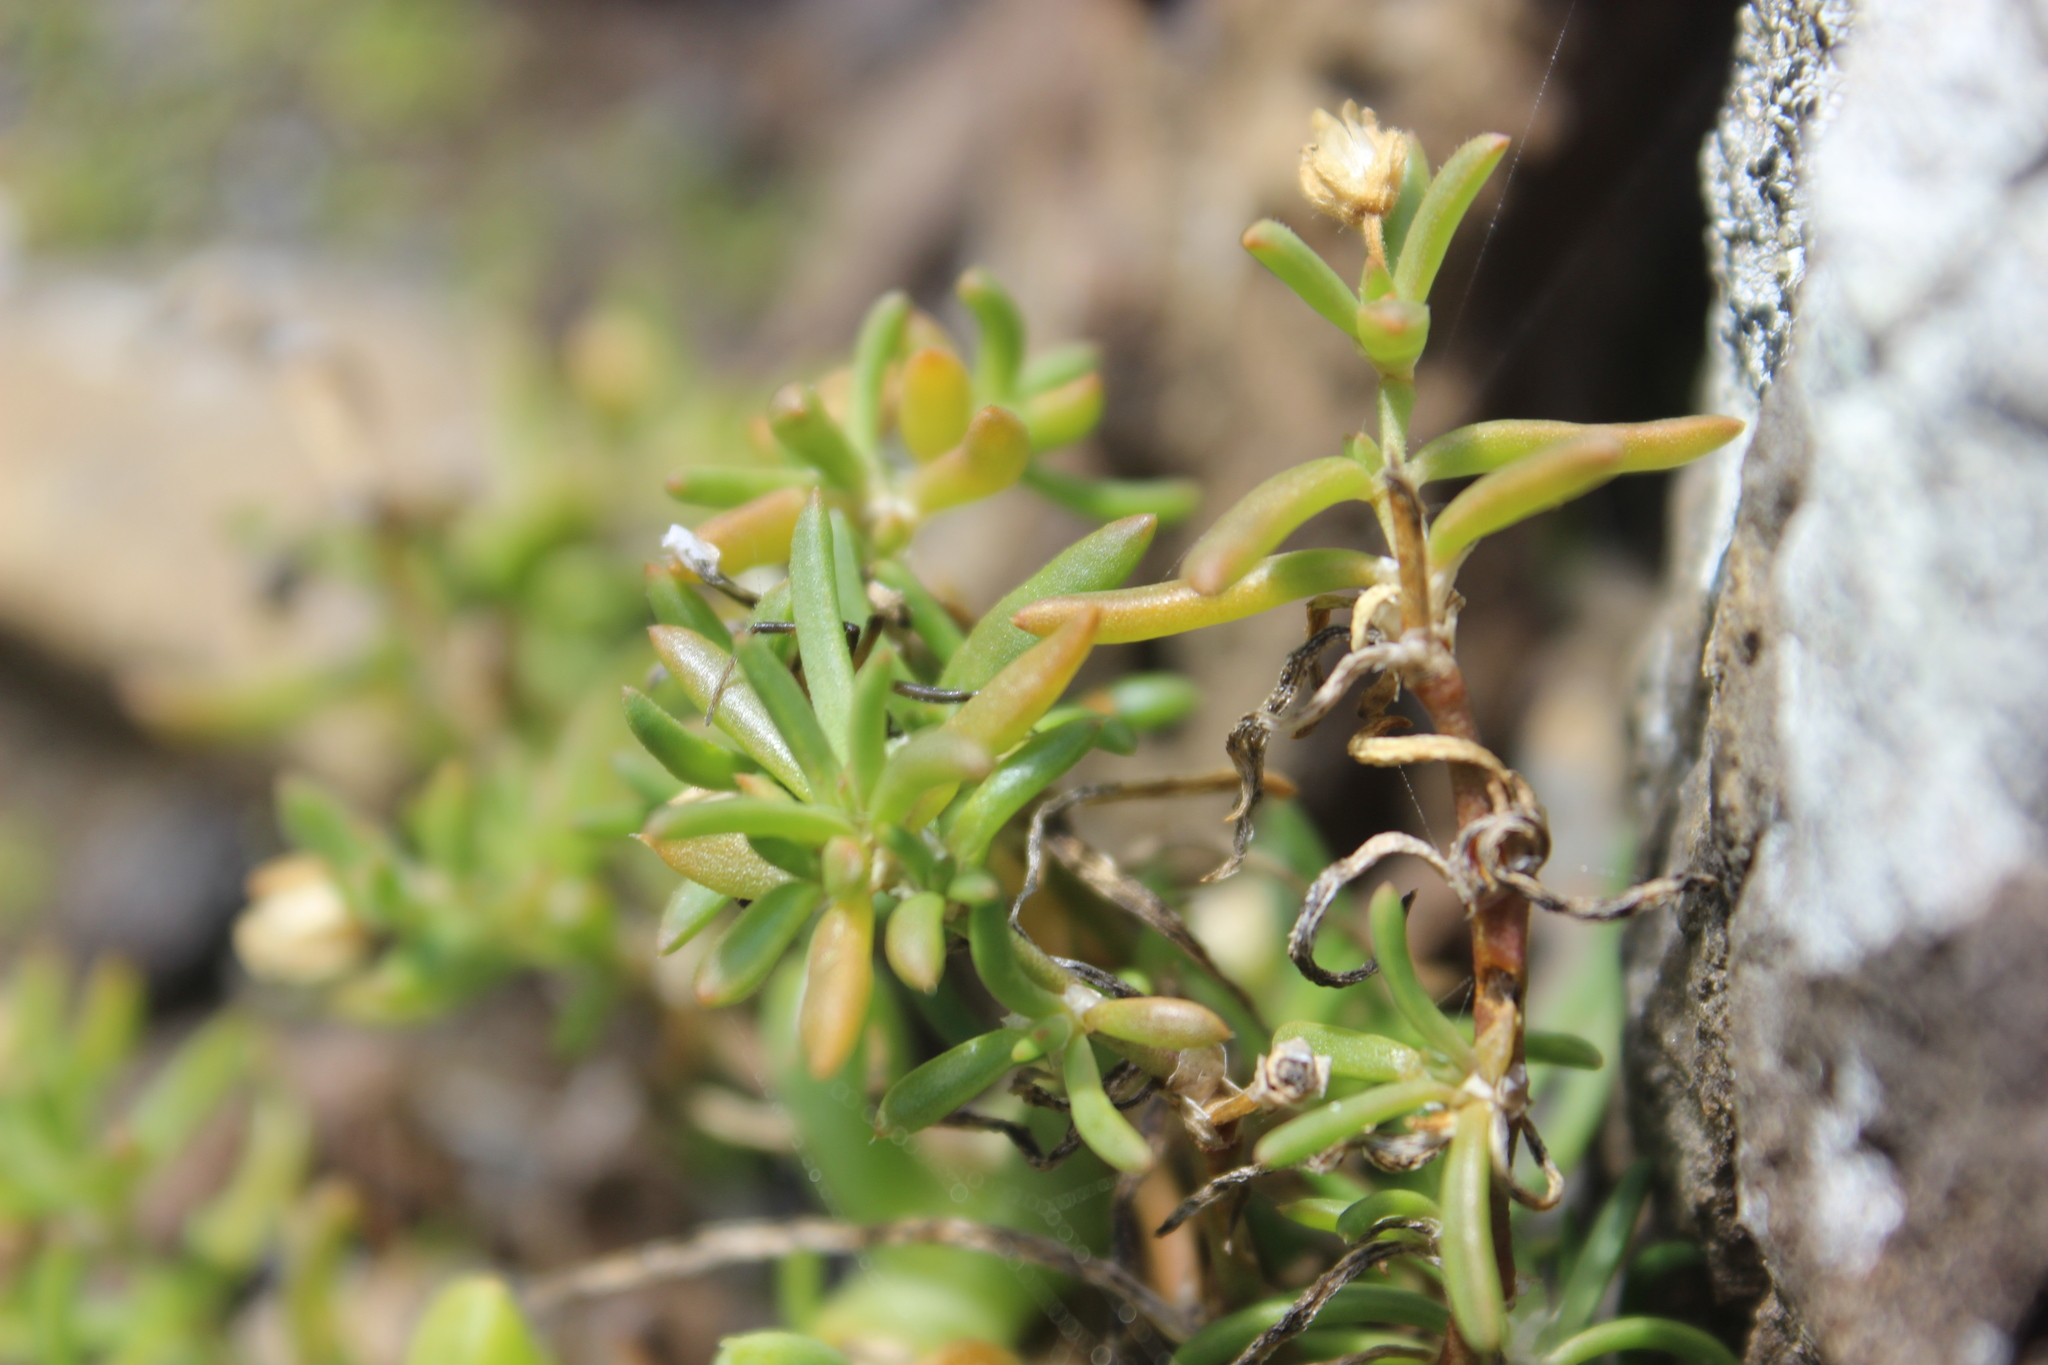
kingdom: Plantae
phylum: Tracheophyta
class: Magnoliopsida
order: Caryophyllales
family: Caryophyllaceae
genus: Spergularia
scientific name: Spergularia media
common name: Greater sea-spurrey
